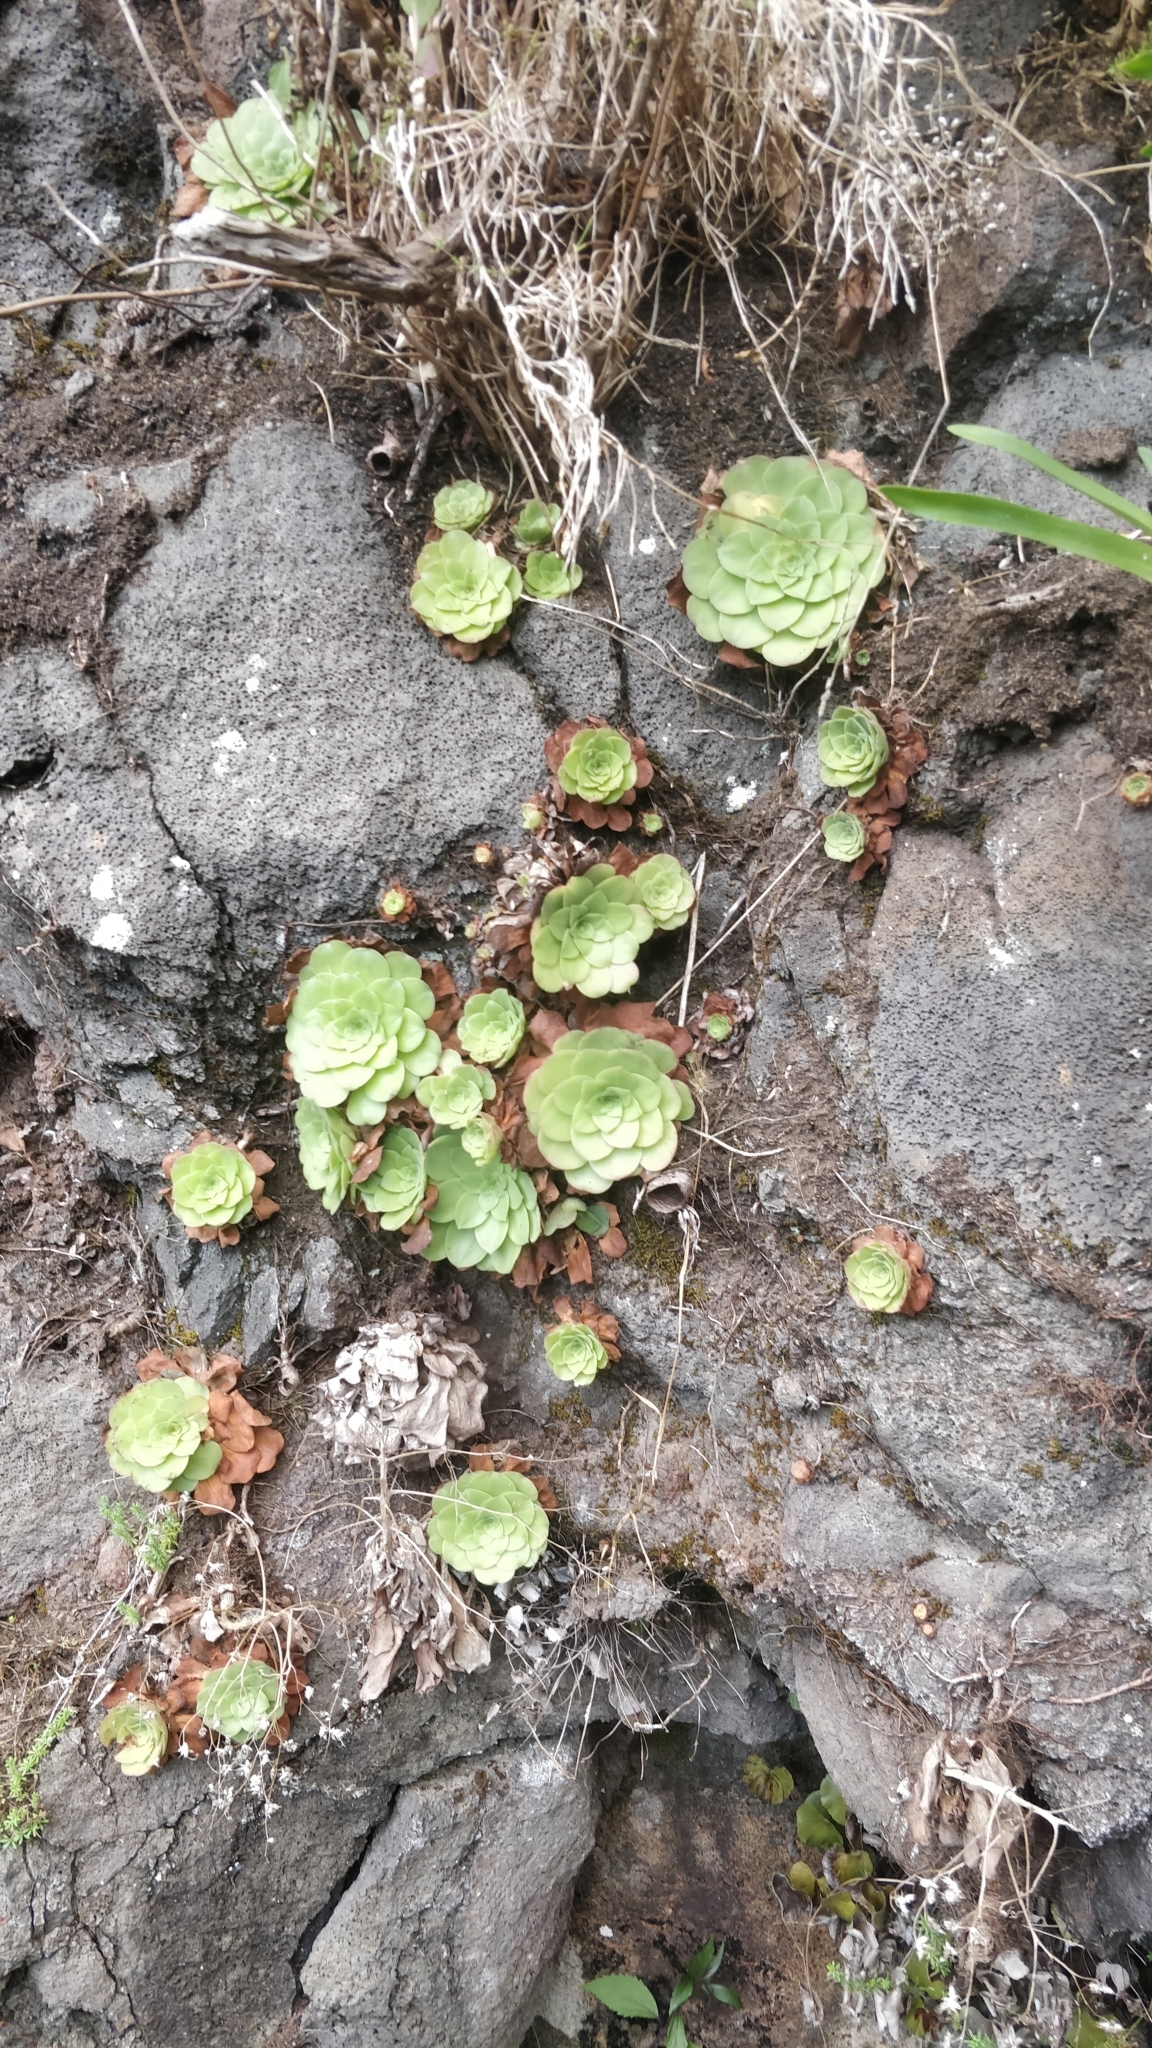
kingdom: Plantae
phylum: Tracheophyta
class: Magnoliopsida
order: Saxifragales
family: Crassulaceae
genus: Aeonium
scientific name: Aeonium glandulosum
